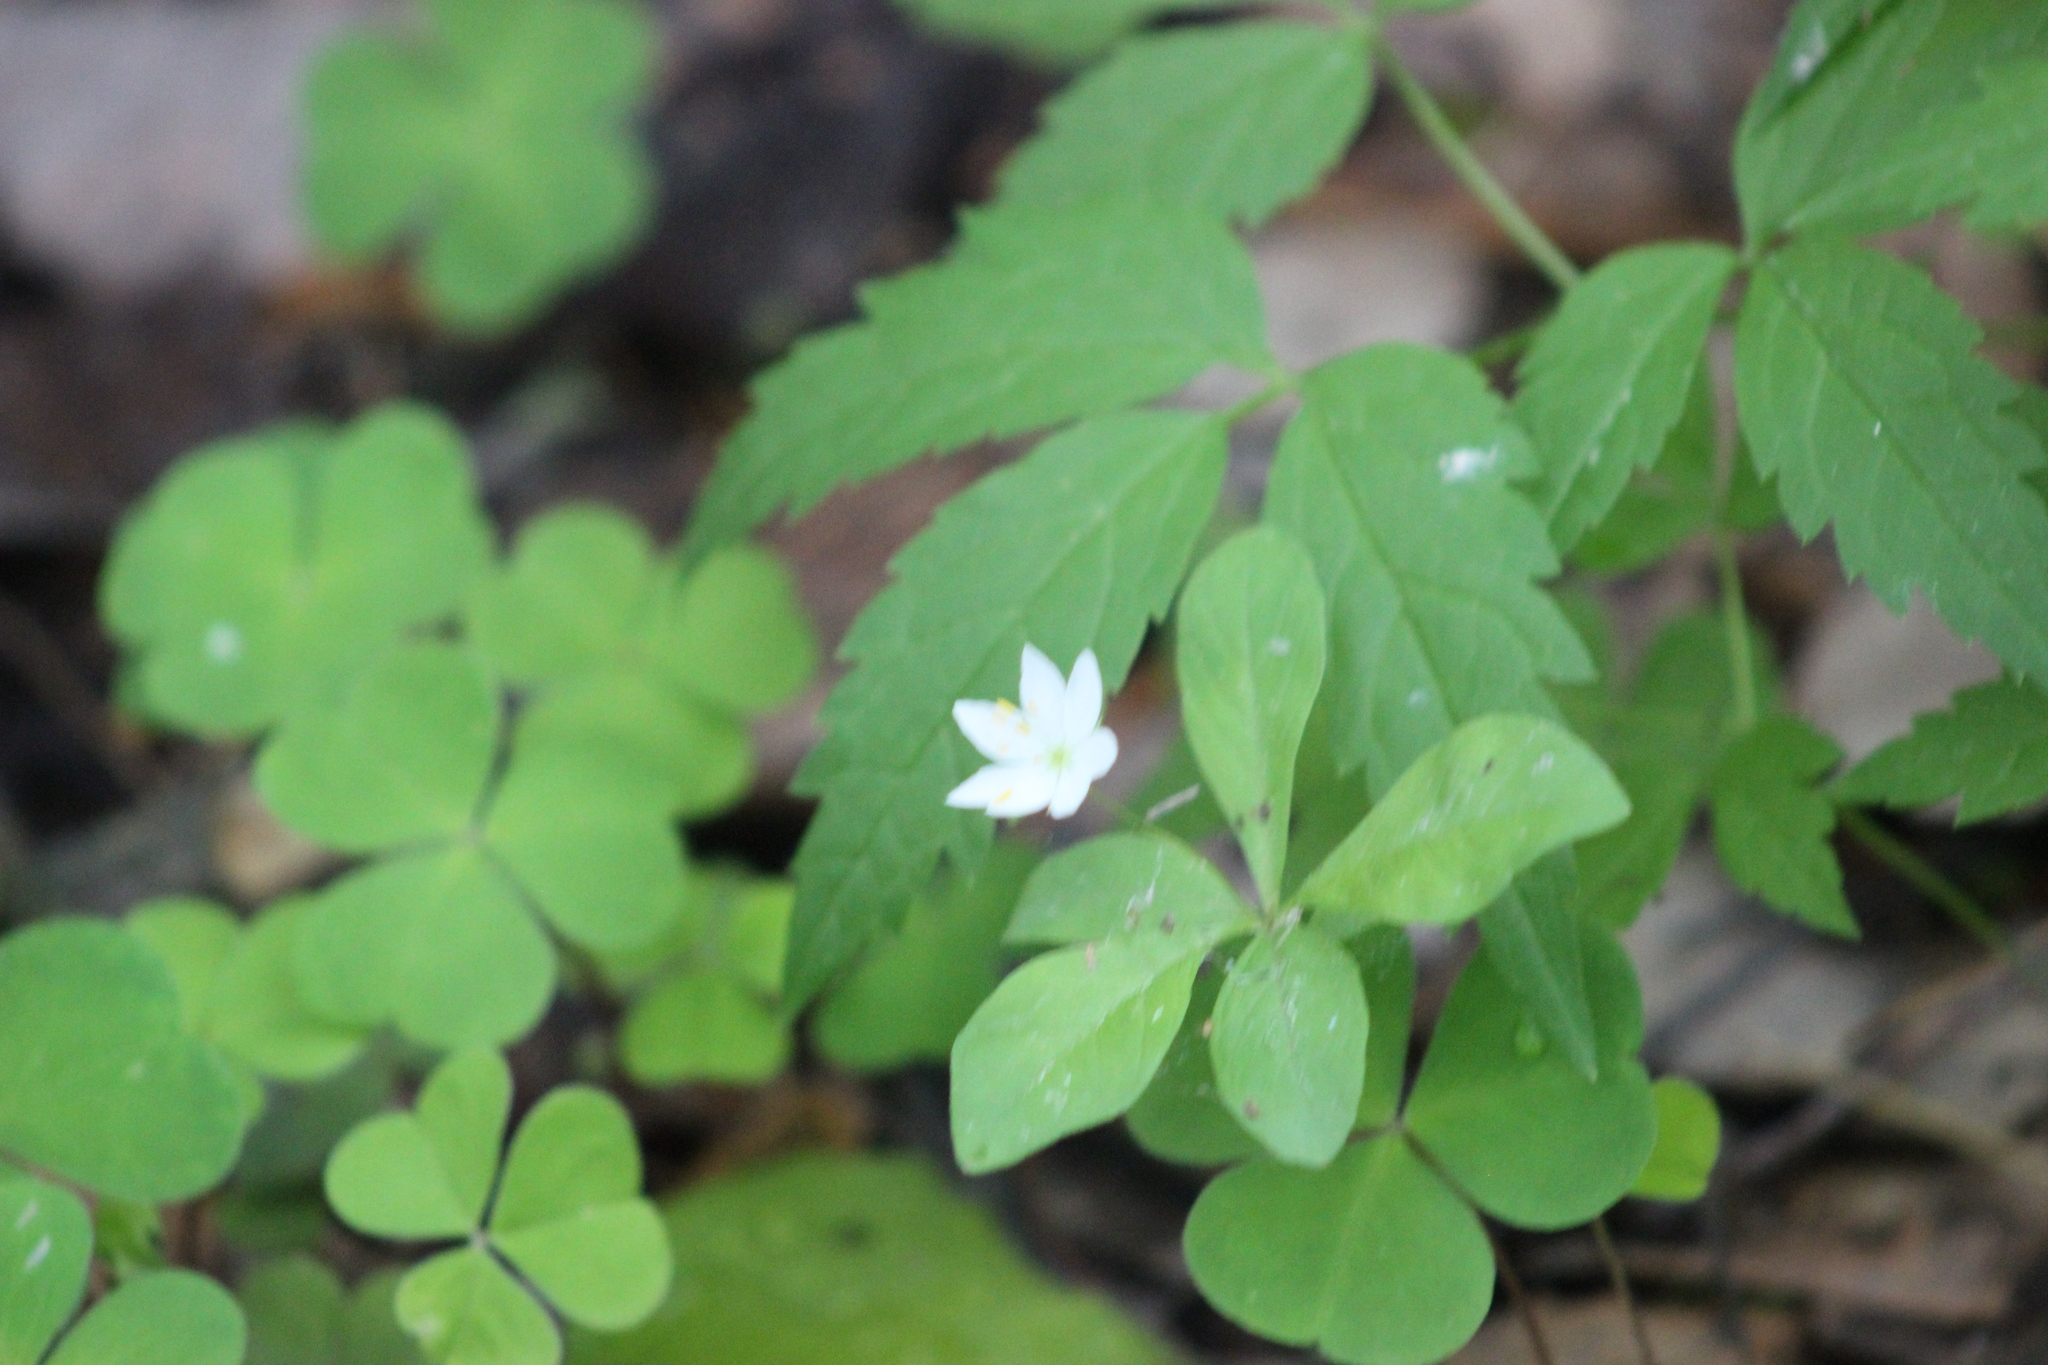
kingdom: Plantae
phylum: Tracheophyta
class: Magnoliopsida
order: Ericales
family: Primulaceae
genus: Lysimachia
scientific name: Lysimachia europaea
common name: Arctic starflower
